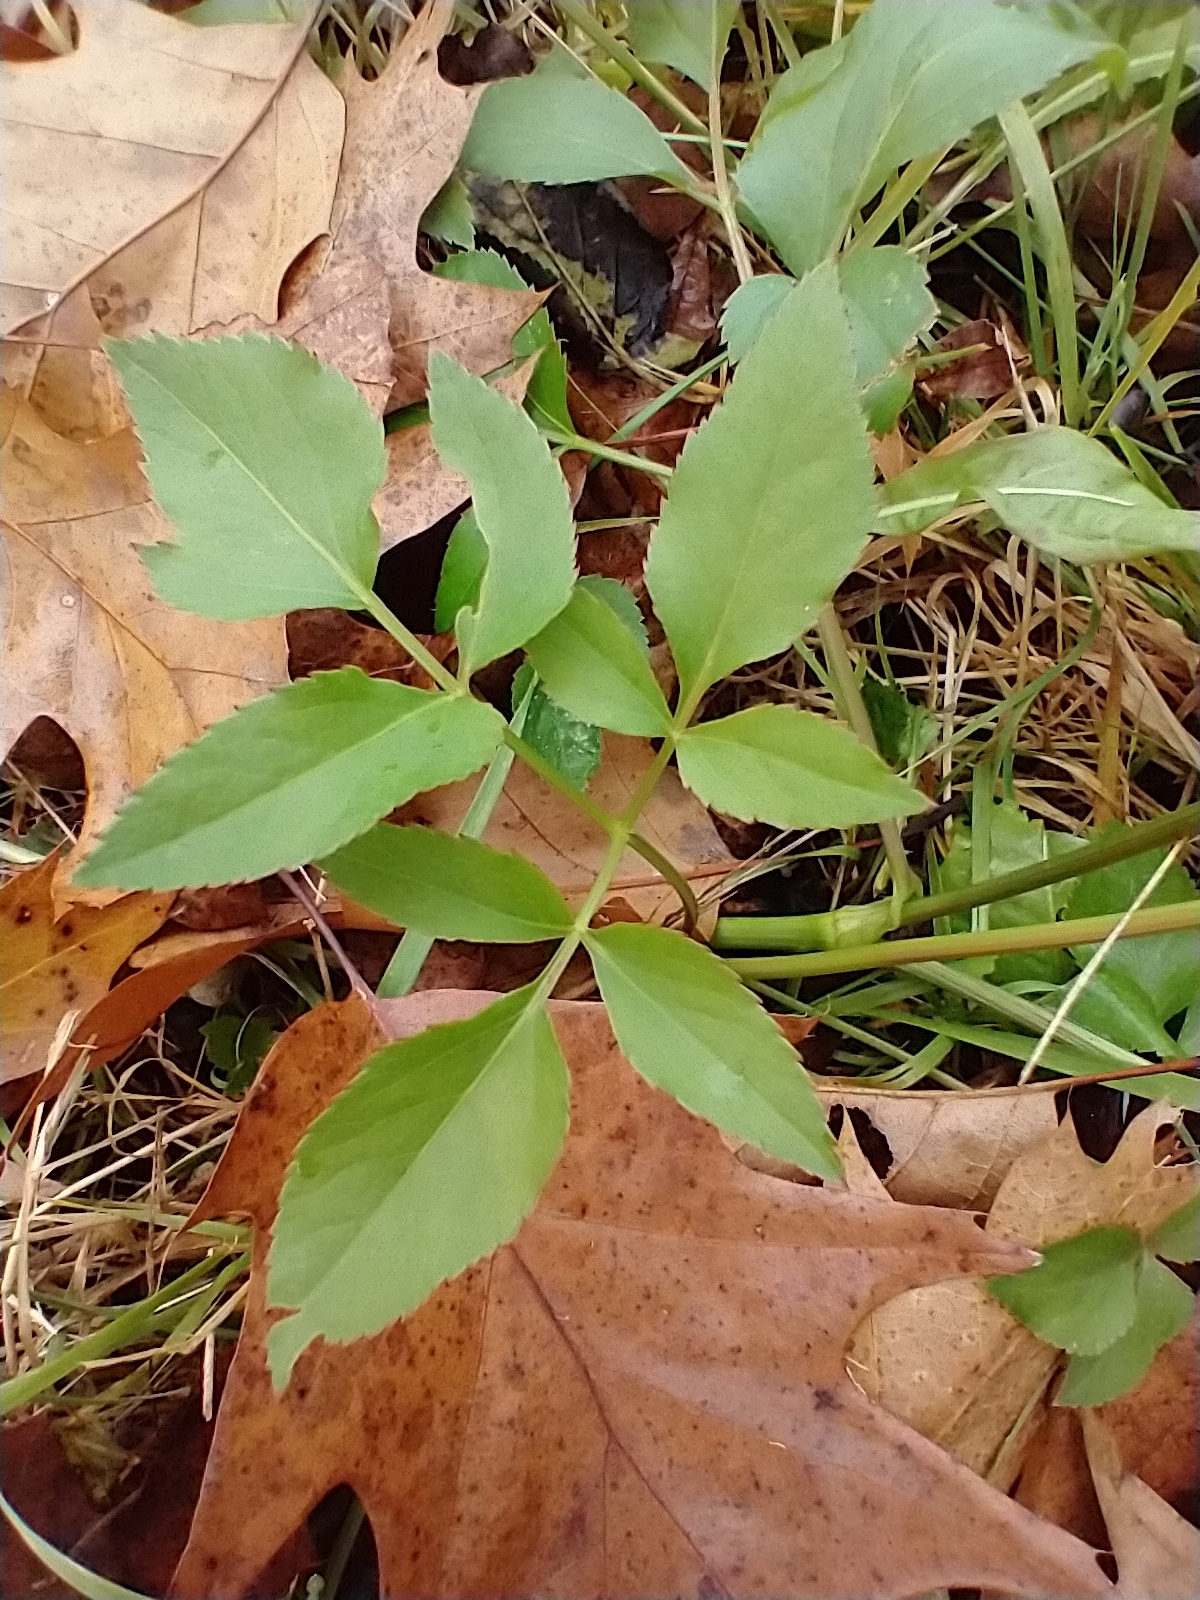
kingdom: Plantae
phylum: Tracheophyta
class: Magnoliopsida
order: Apiales
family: Apiaceae
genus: Zizia
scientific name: Zizia aurea
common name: Golden alexanders
